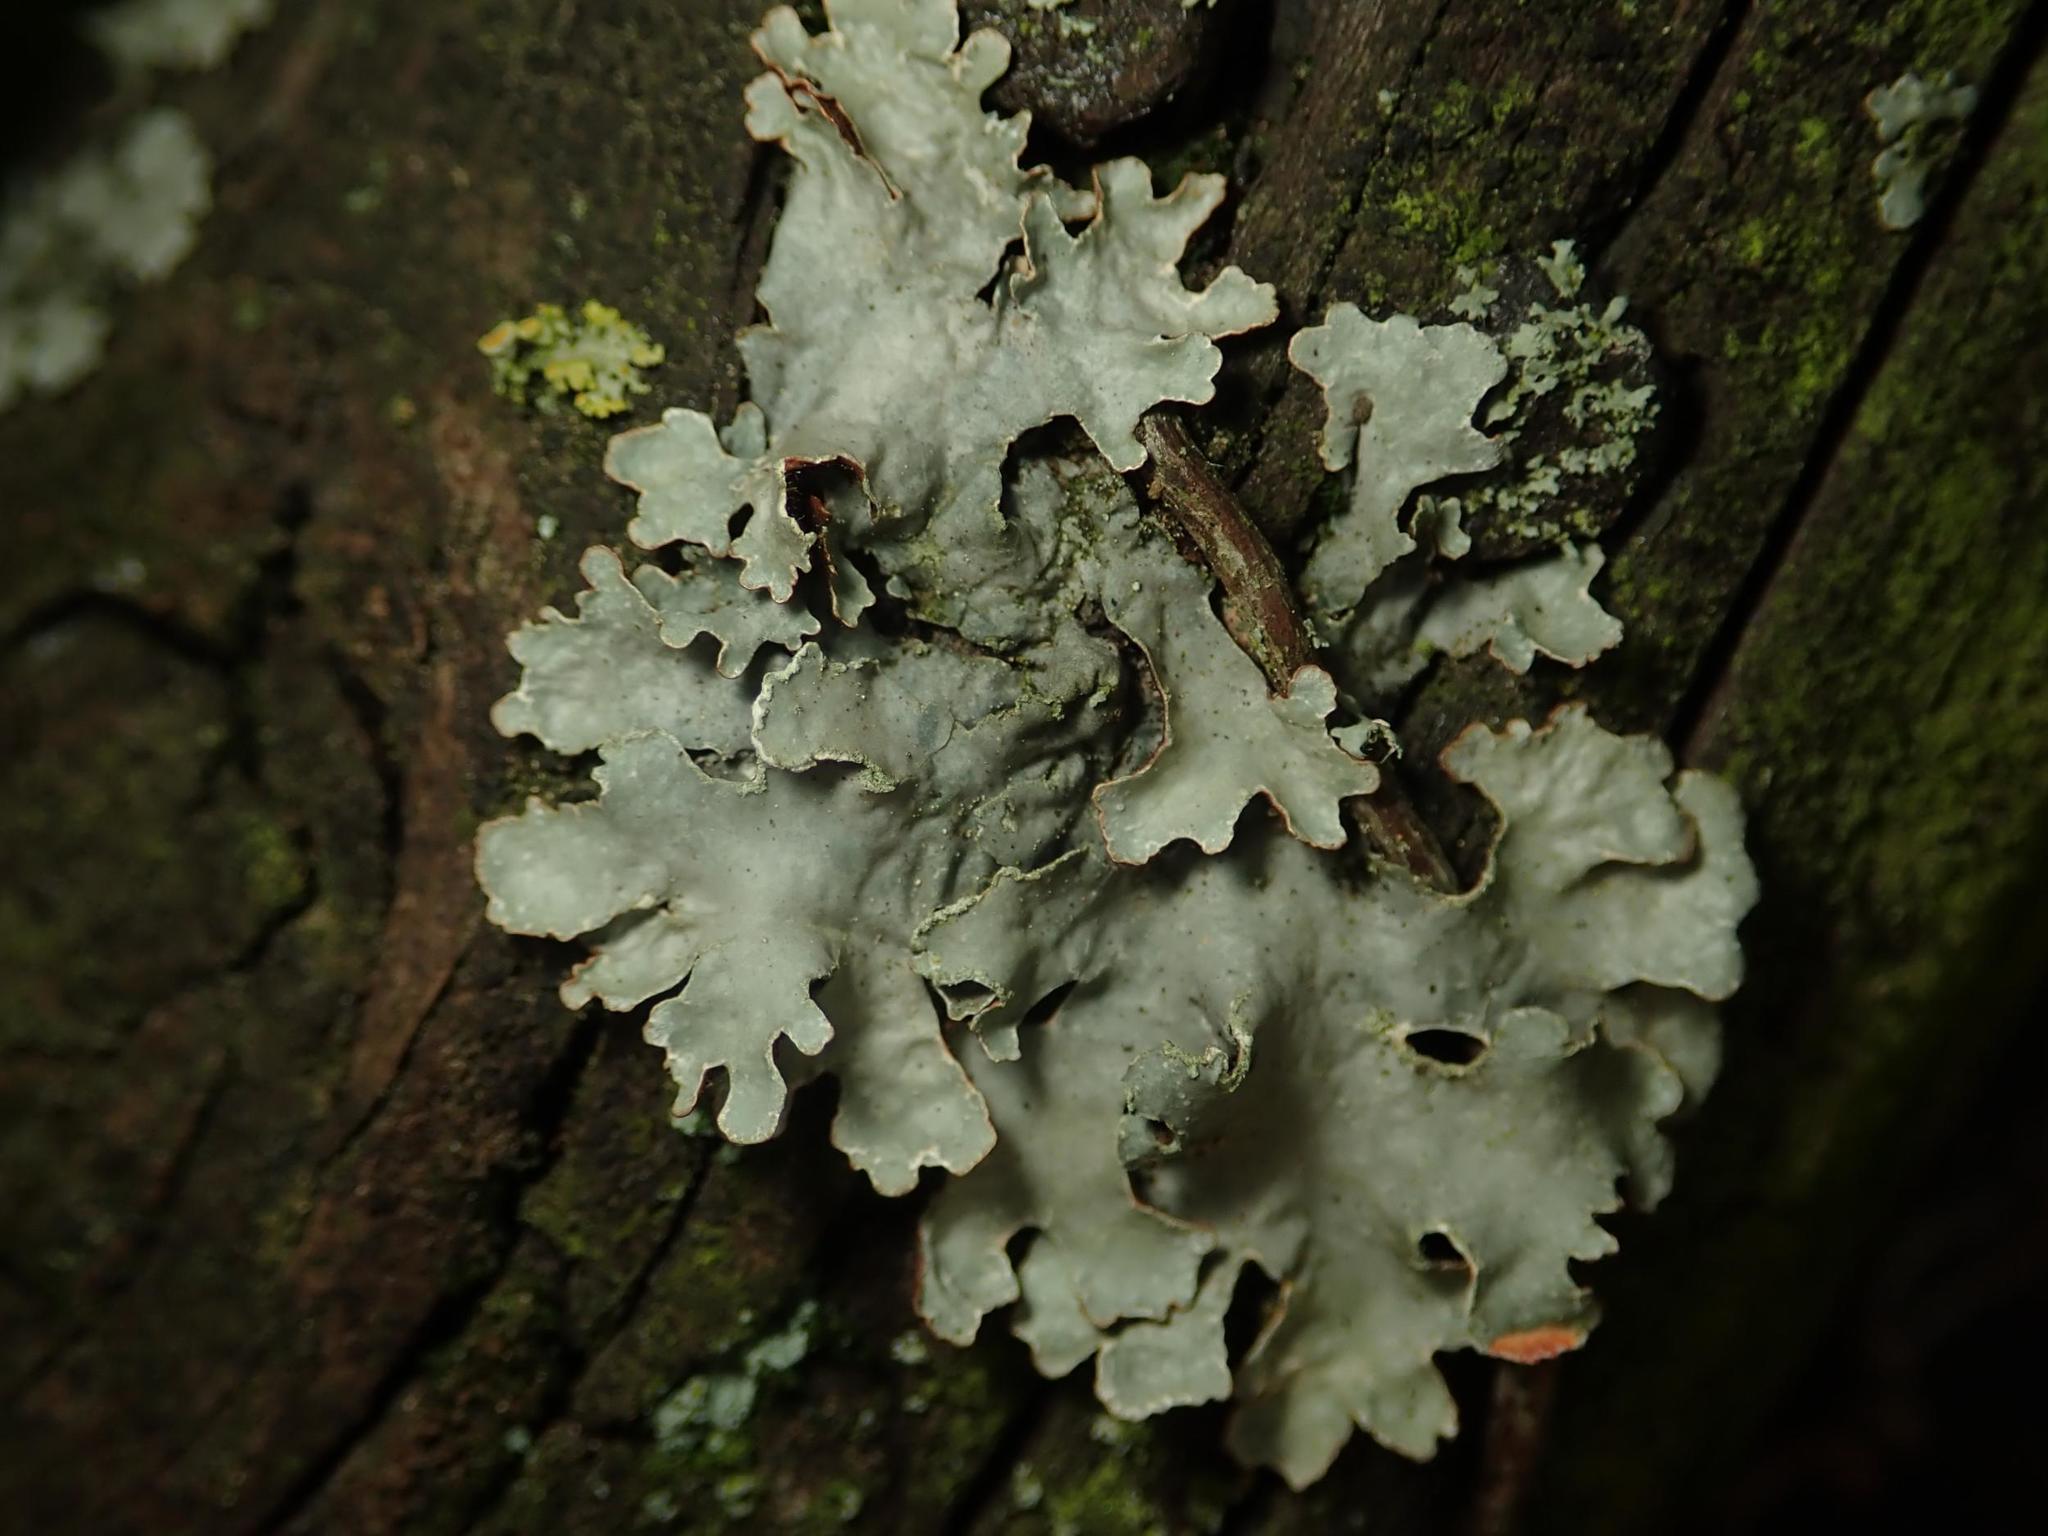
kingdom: Fungi
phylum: Ascomycota
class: Lecanoromycetes
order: Lecanorales
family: Parmeliaceae
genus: Parmelia
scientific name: Parmelia sulcata
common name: Netted shield lichen
